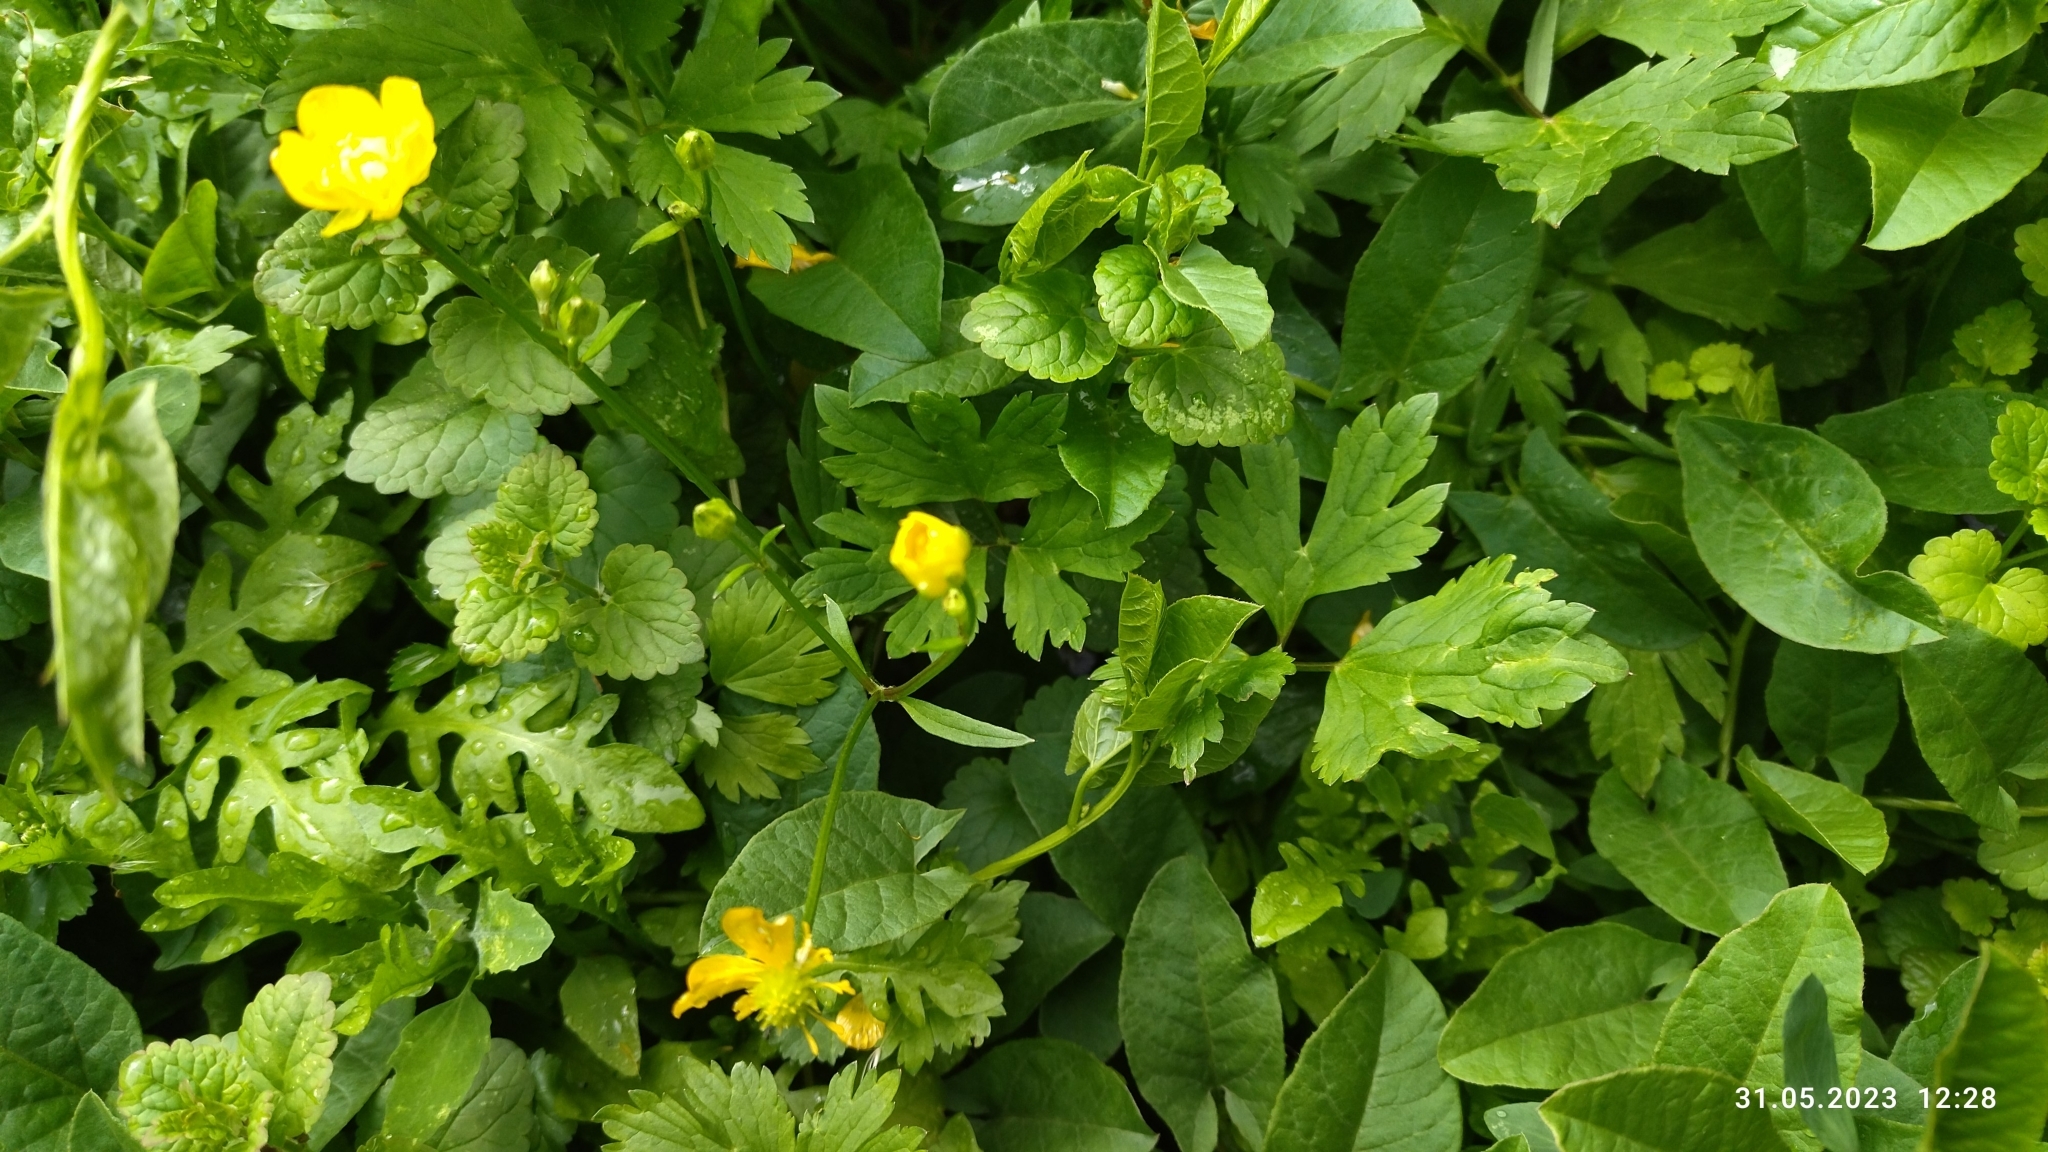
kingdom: Plantae
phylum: Tracheophyta
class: Magnoliopsida
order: Ranunculales
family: Ranunculaceae
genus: Ranunculus
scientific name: Ranunculus repens
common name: Creeping buttercup
